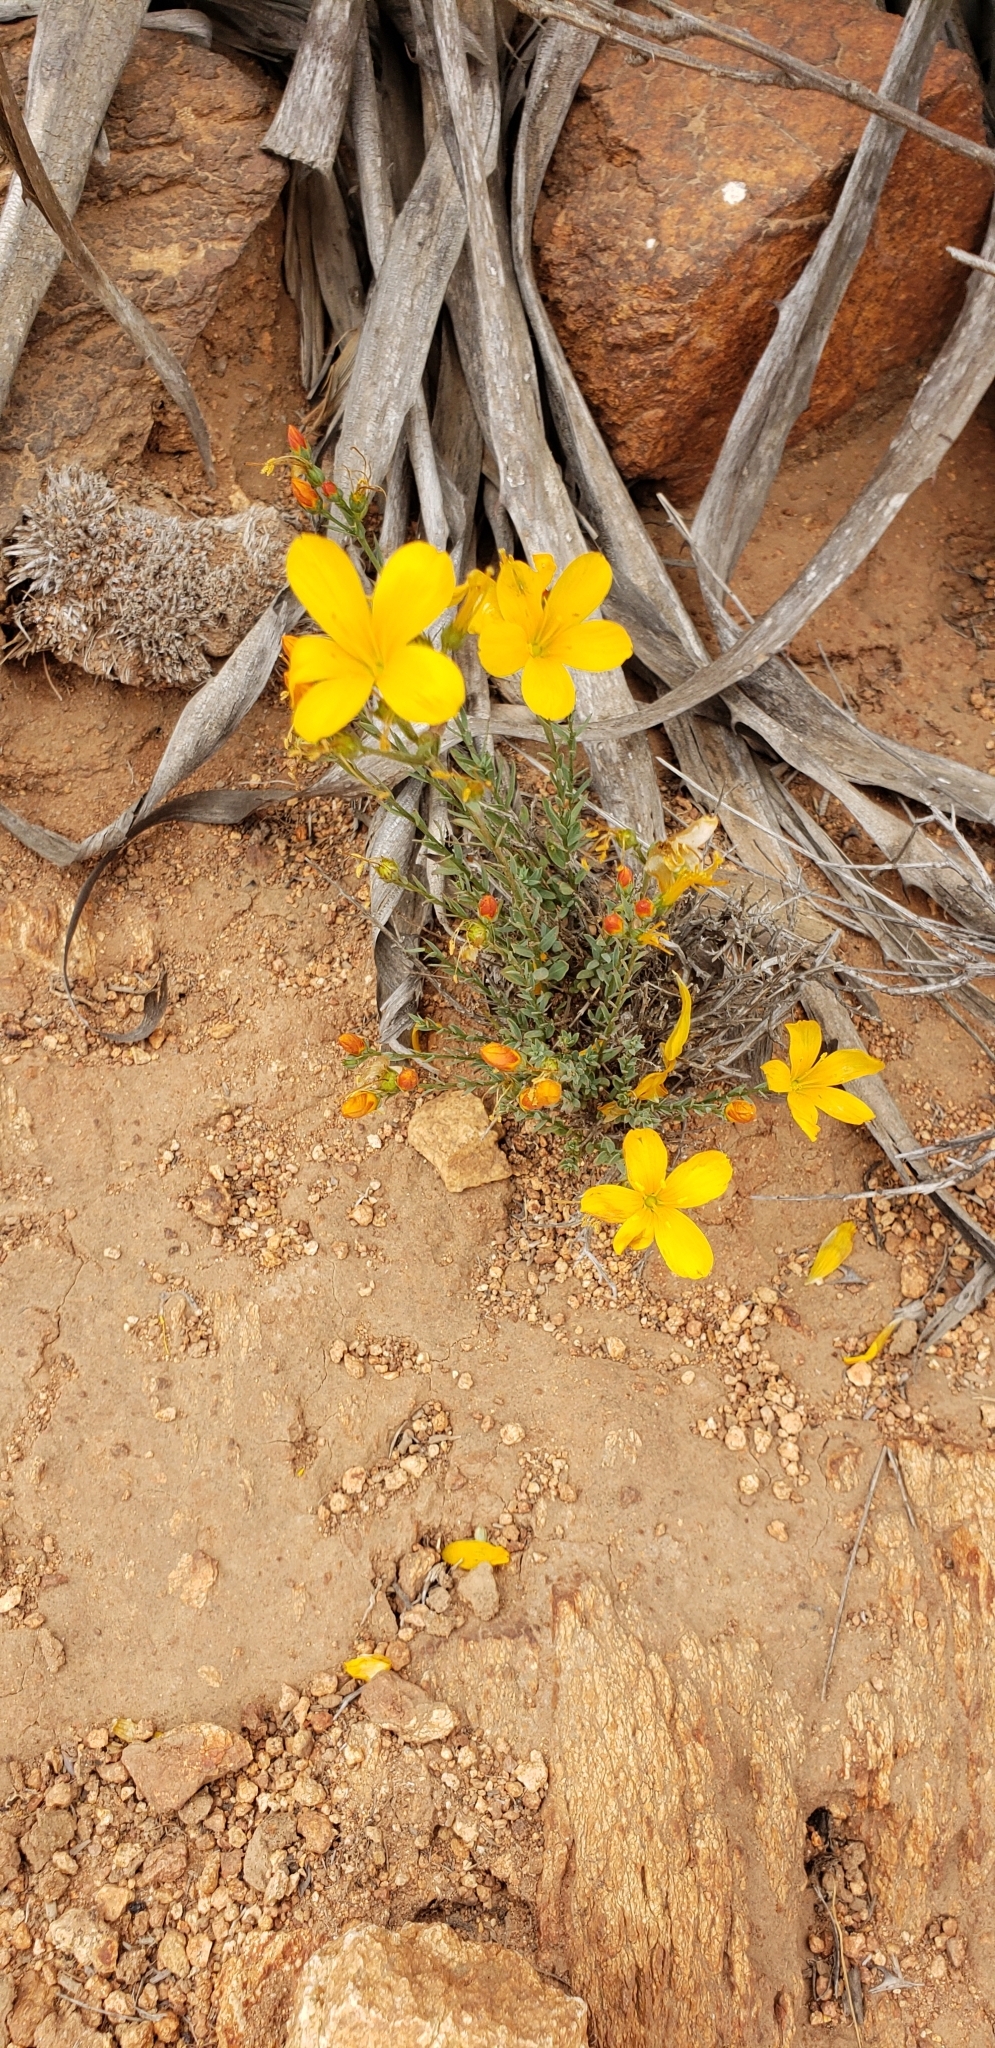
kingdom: Plantae
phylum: Tracheophyta
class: Magnoliopsida
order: Malpighiales
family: Linaceae
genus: Linum
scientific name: Linum macraei
